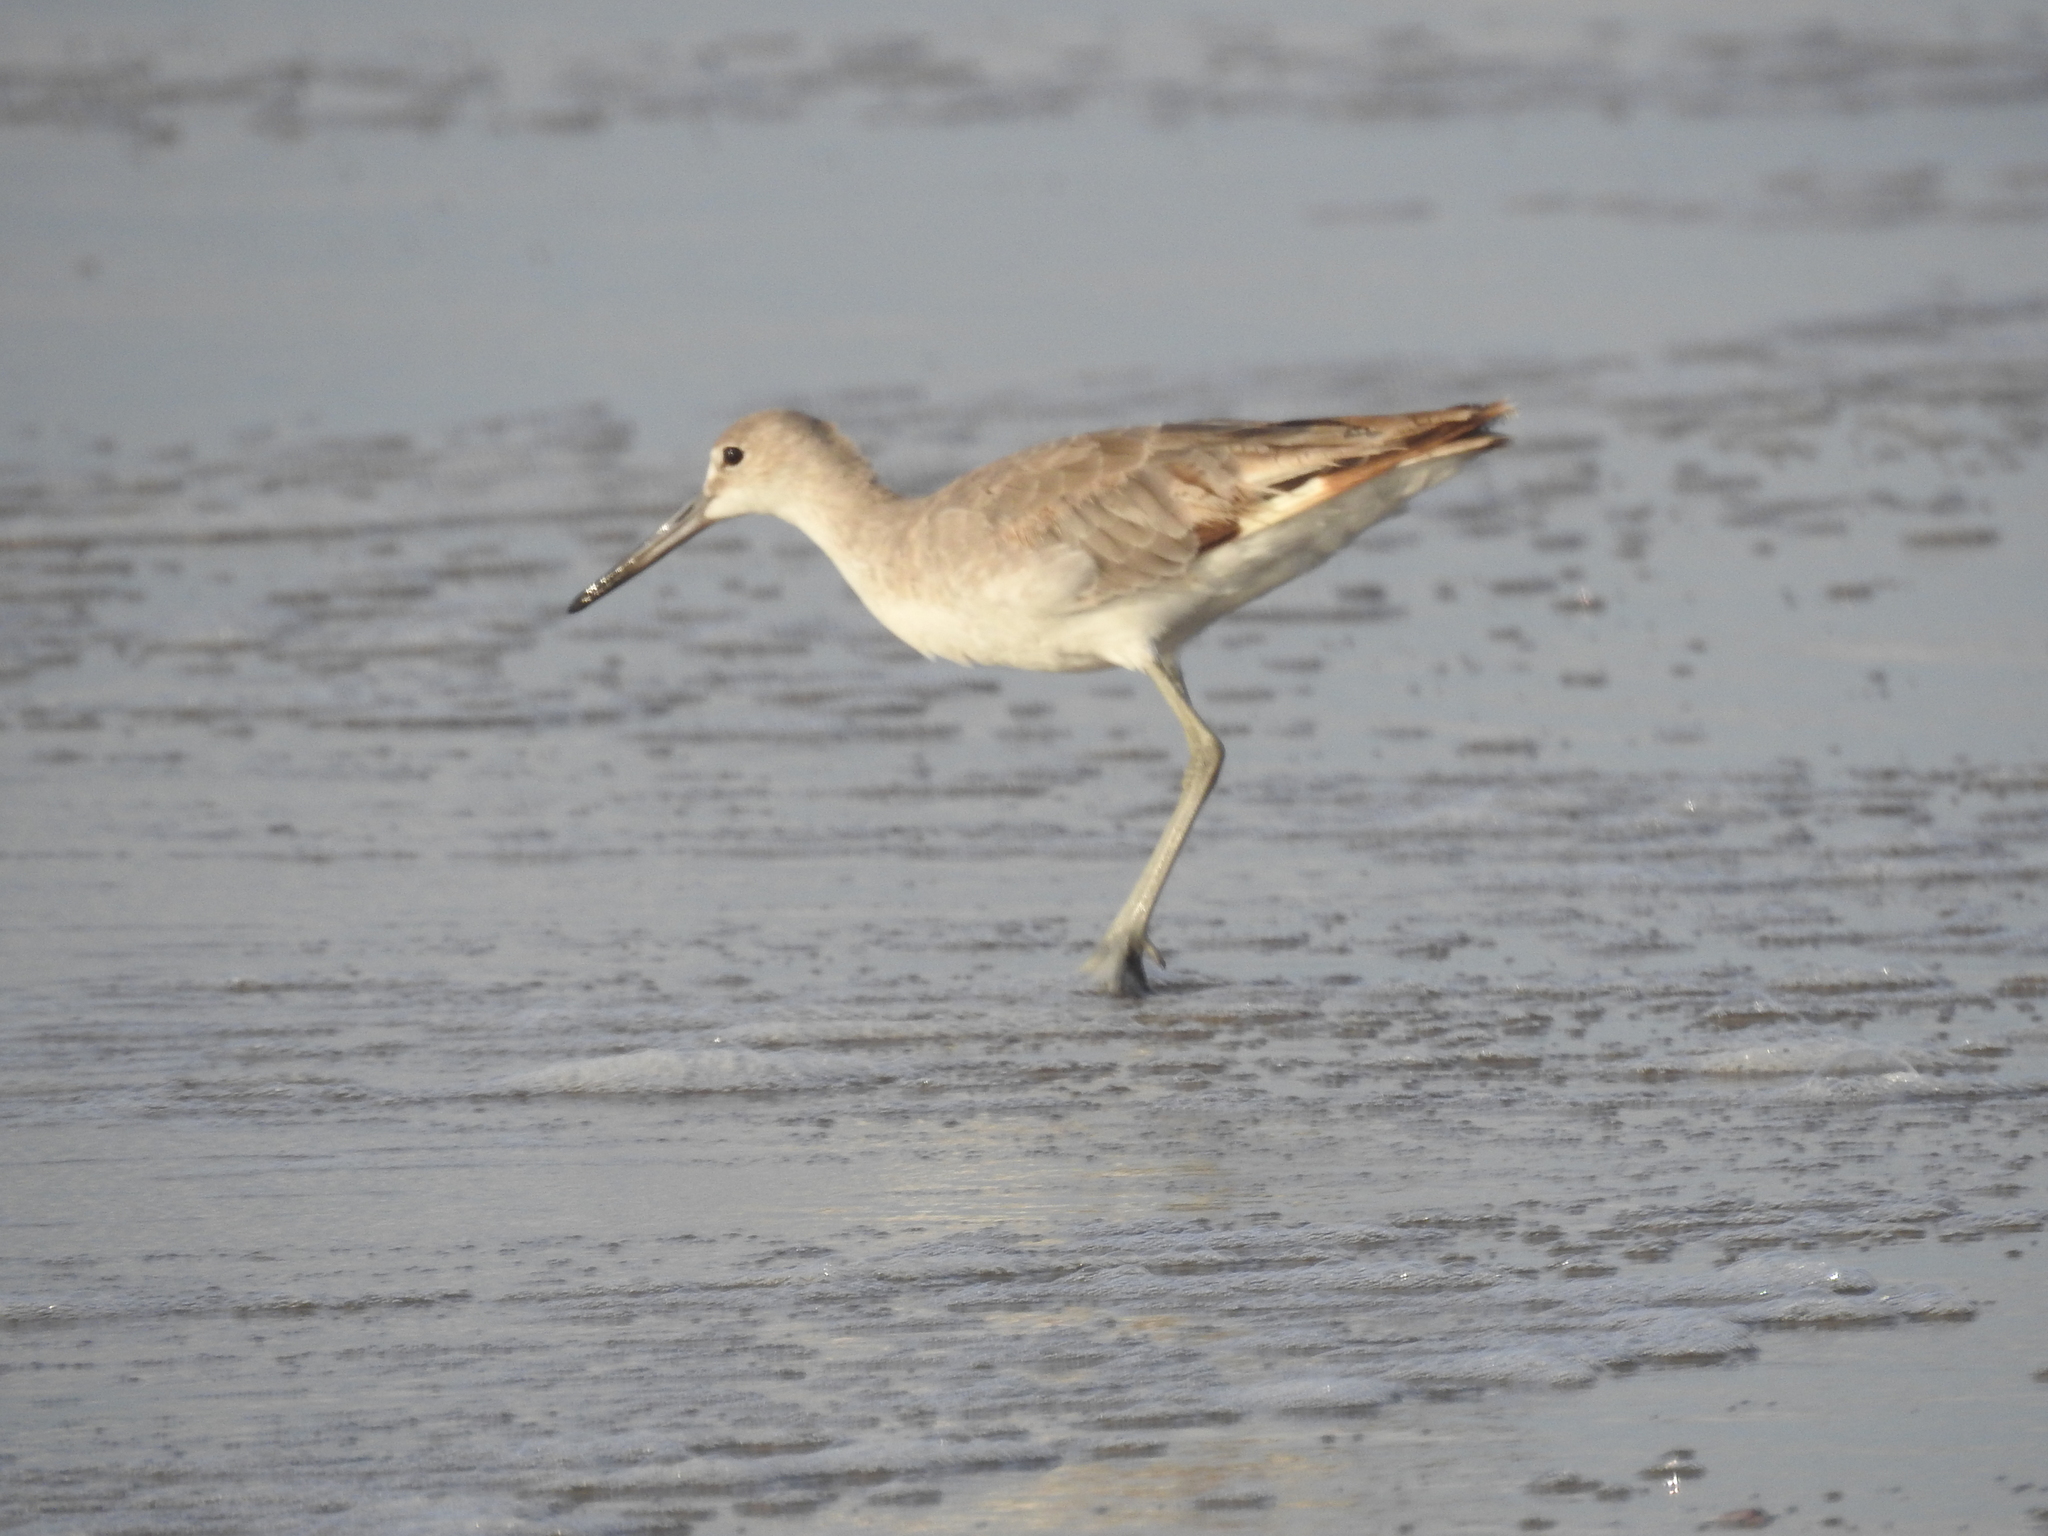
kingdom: Animalia
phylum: Chordata
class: Aves
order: Charadriiformes
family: Scolopacidae
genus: Tringa
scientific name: Tringa semipalmata
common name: Willet
